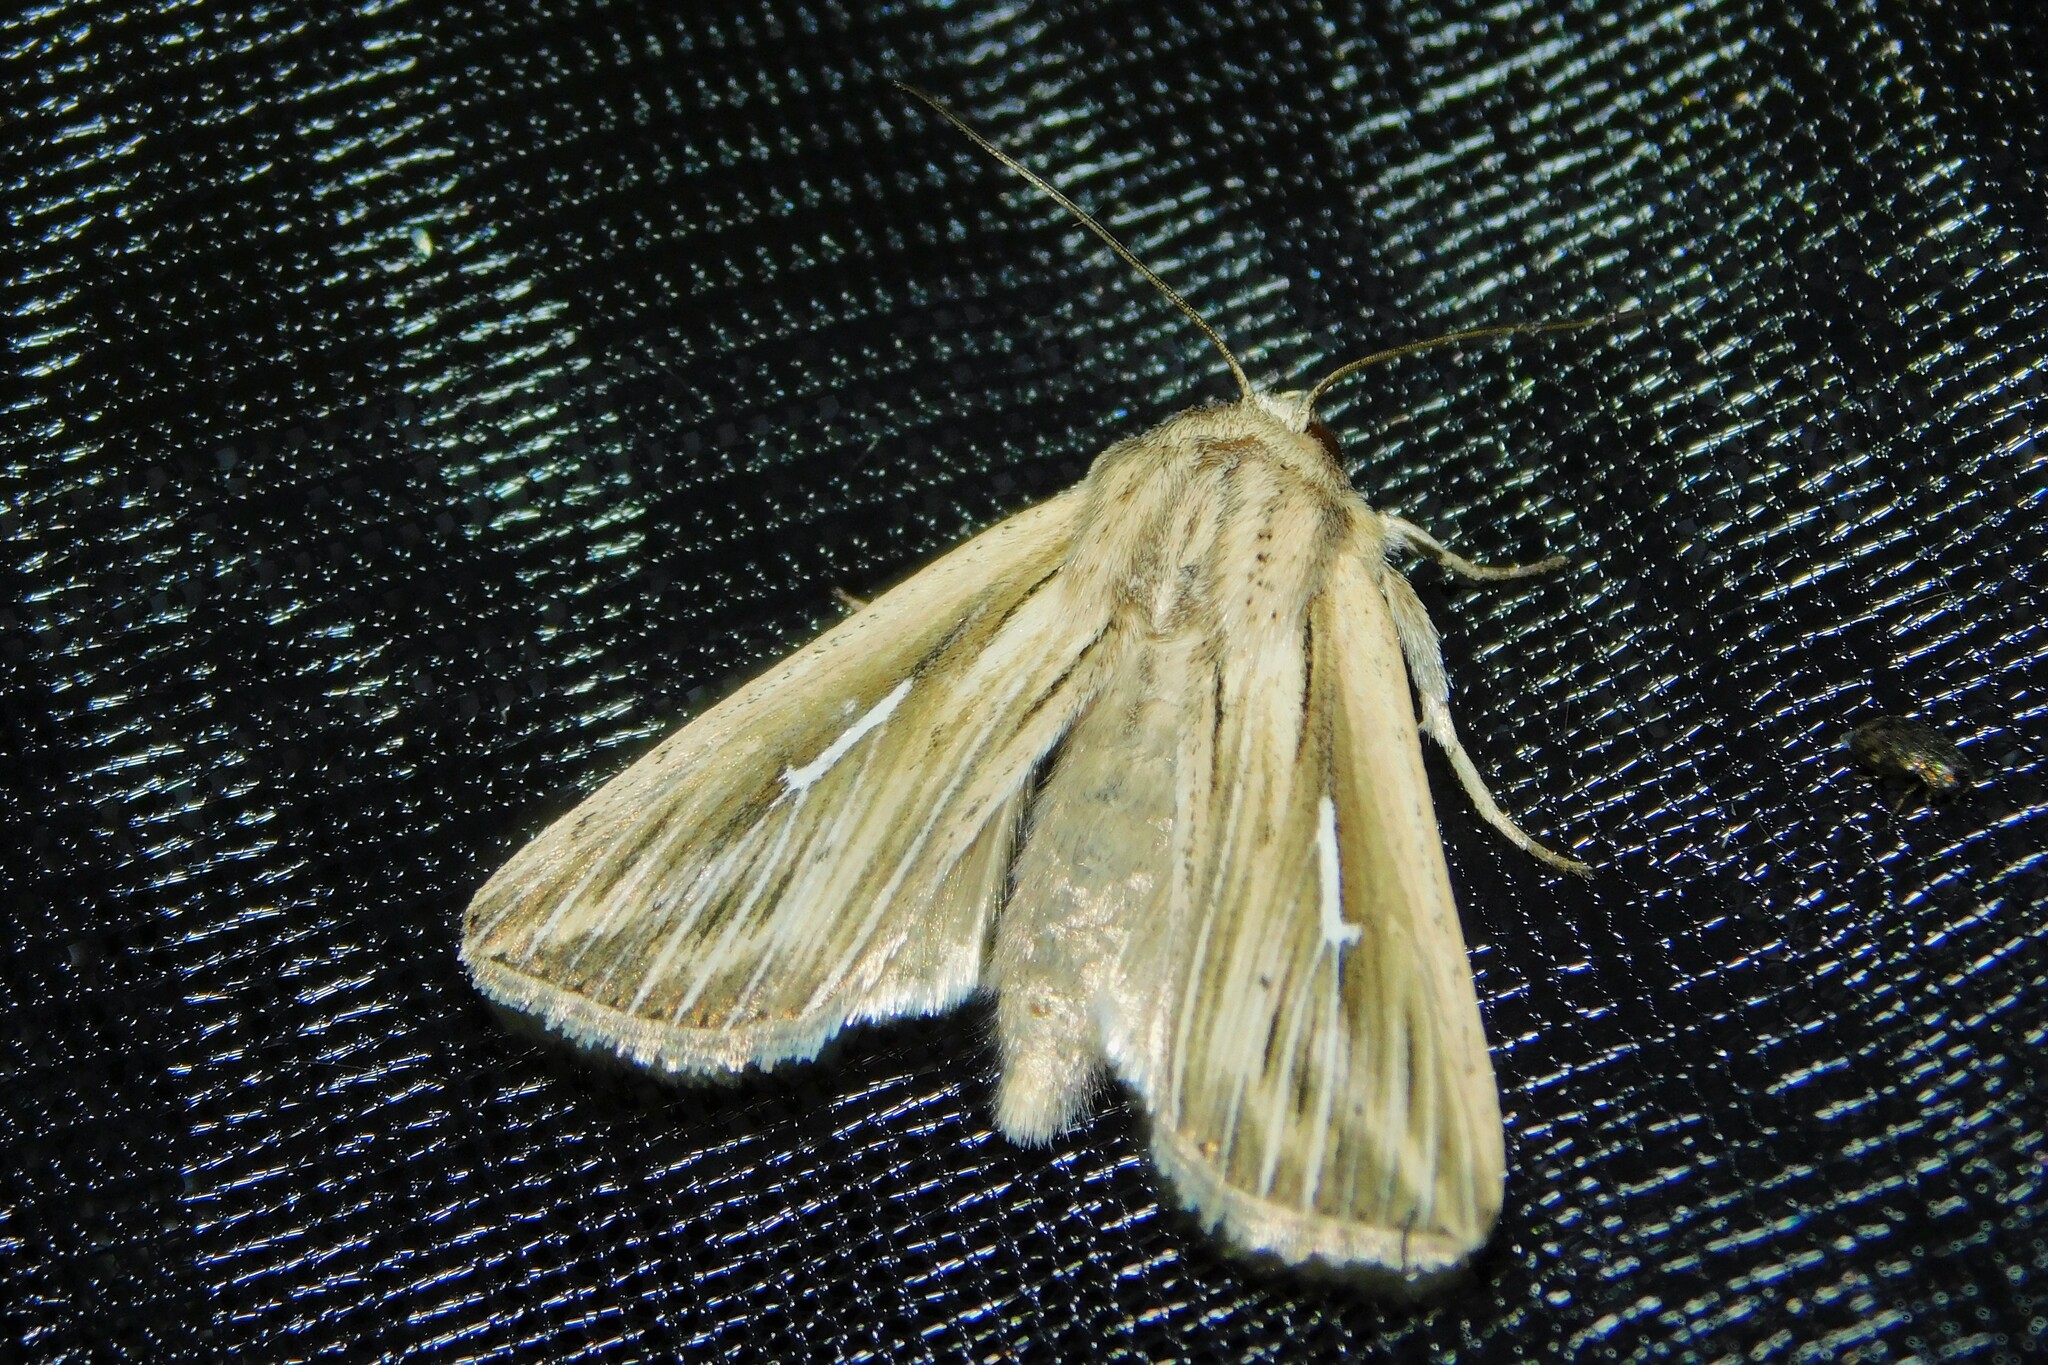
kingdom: Animalia
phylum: Arthropoda
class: Insecta
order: Lepidoptera
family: Noctuidae
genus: Mythimna
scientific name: Mythimna l-album
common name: L-album wainscot
